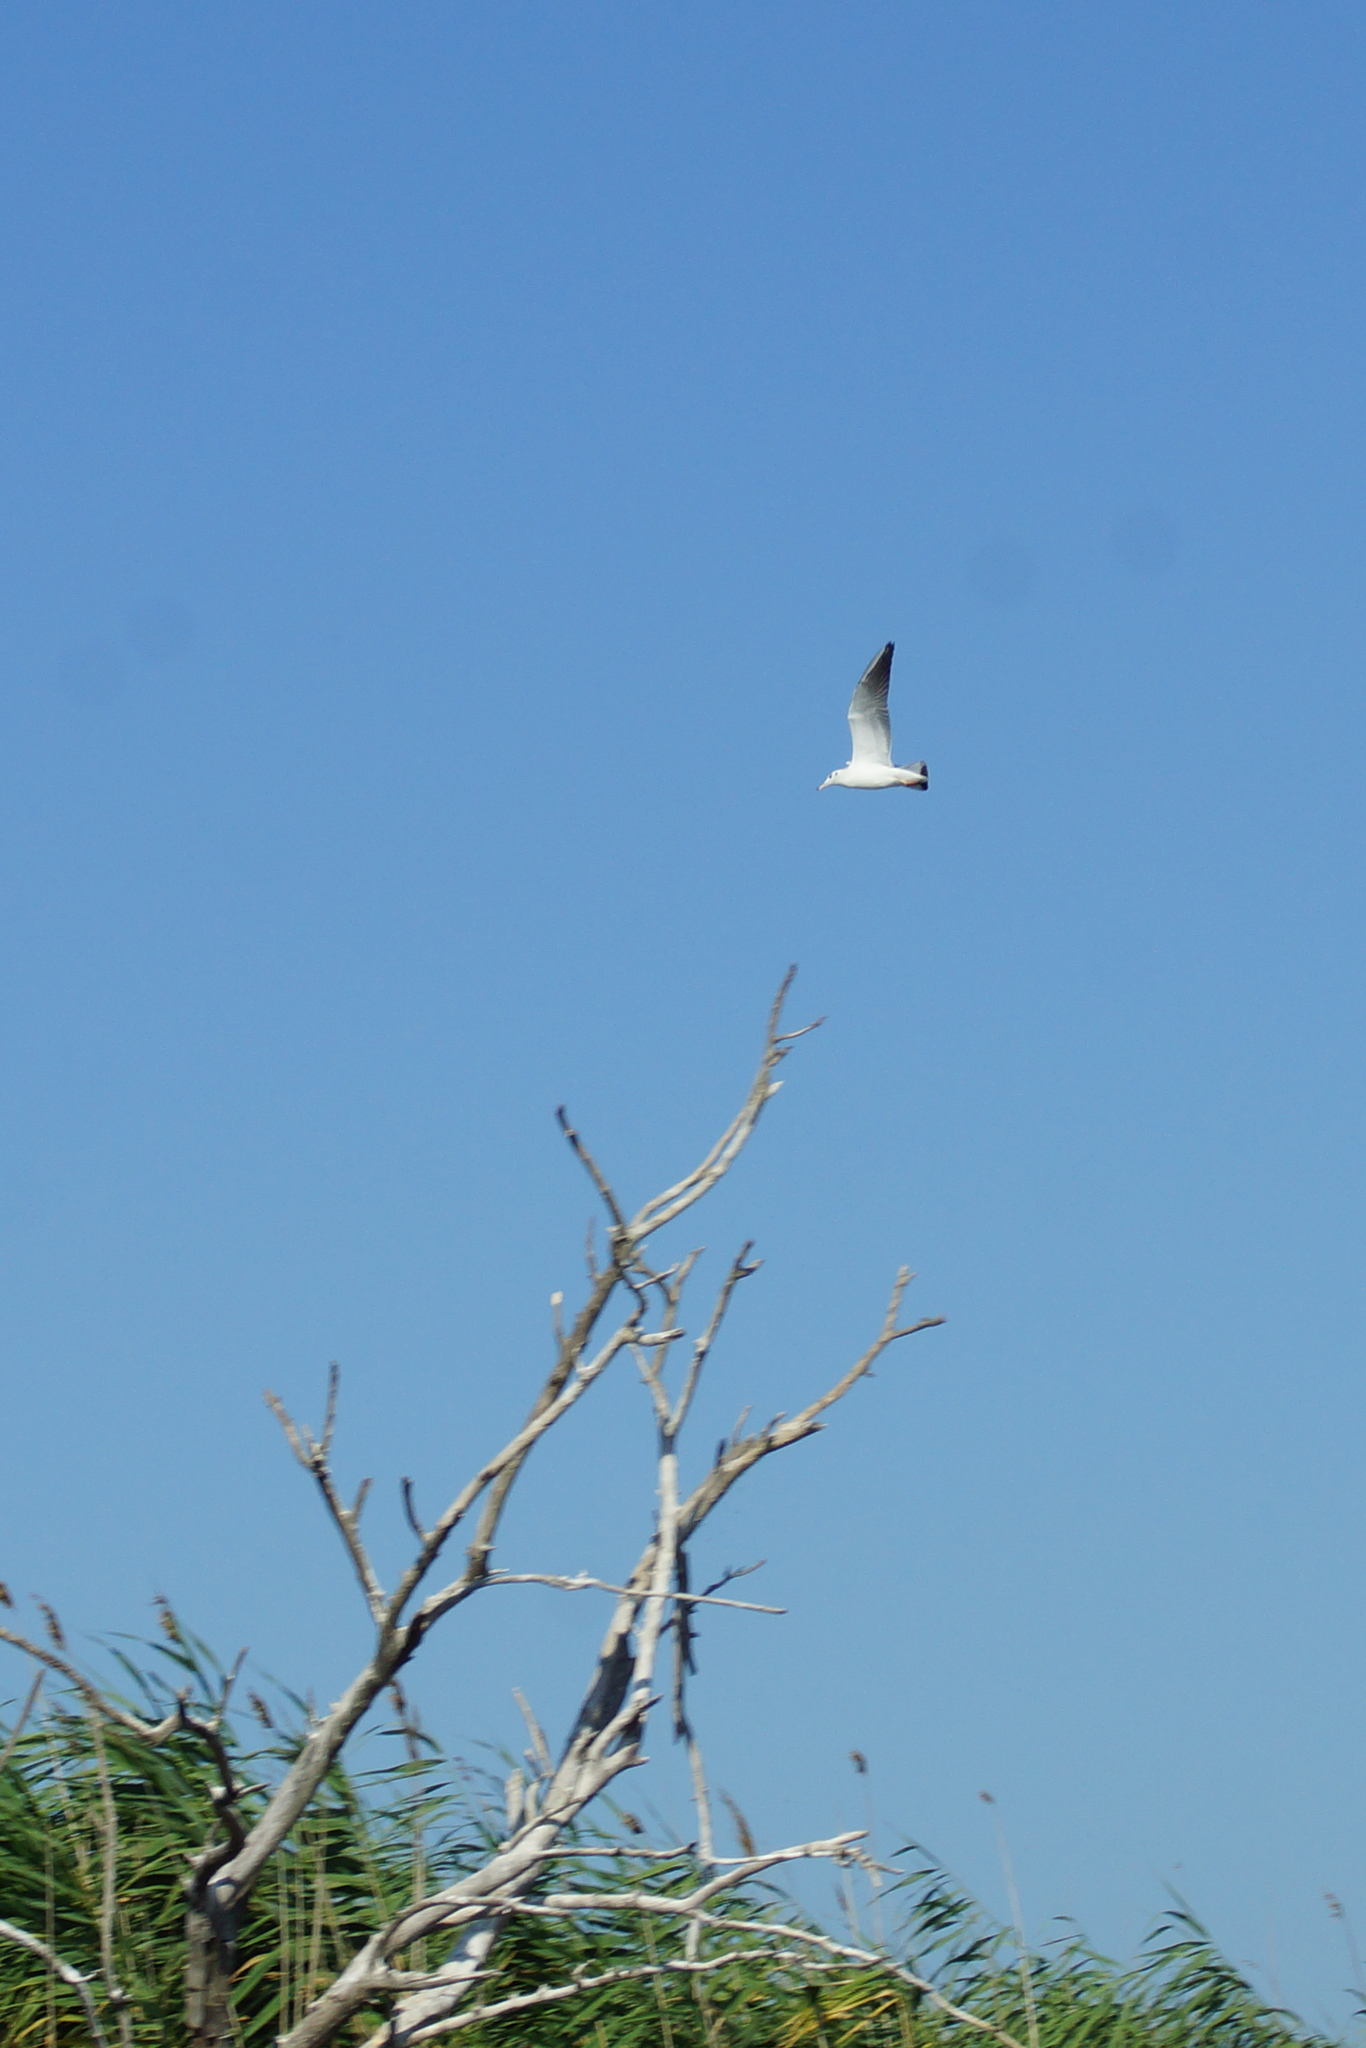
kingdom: Animalia
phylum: Chordata
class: Aves
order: Charadriiformes
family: Laridae
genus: Chroicocephalus
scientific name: Chroicocephalus ridibundus
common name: Black-headed gull
